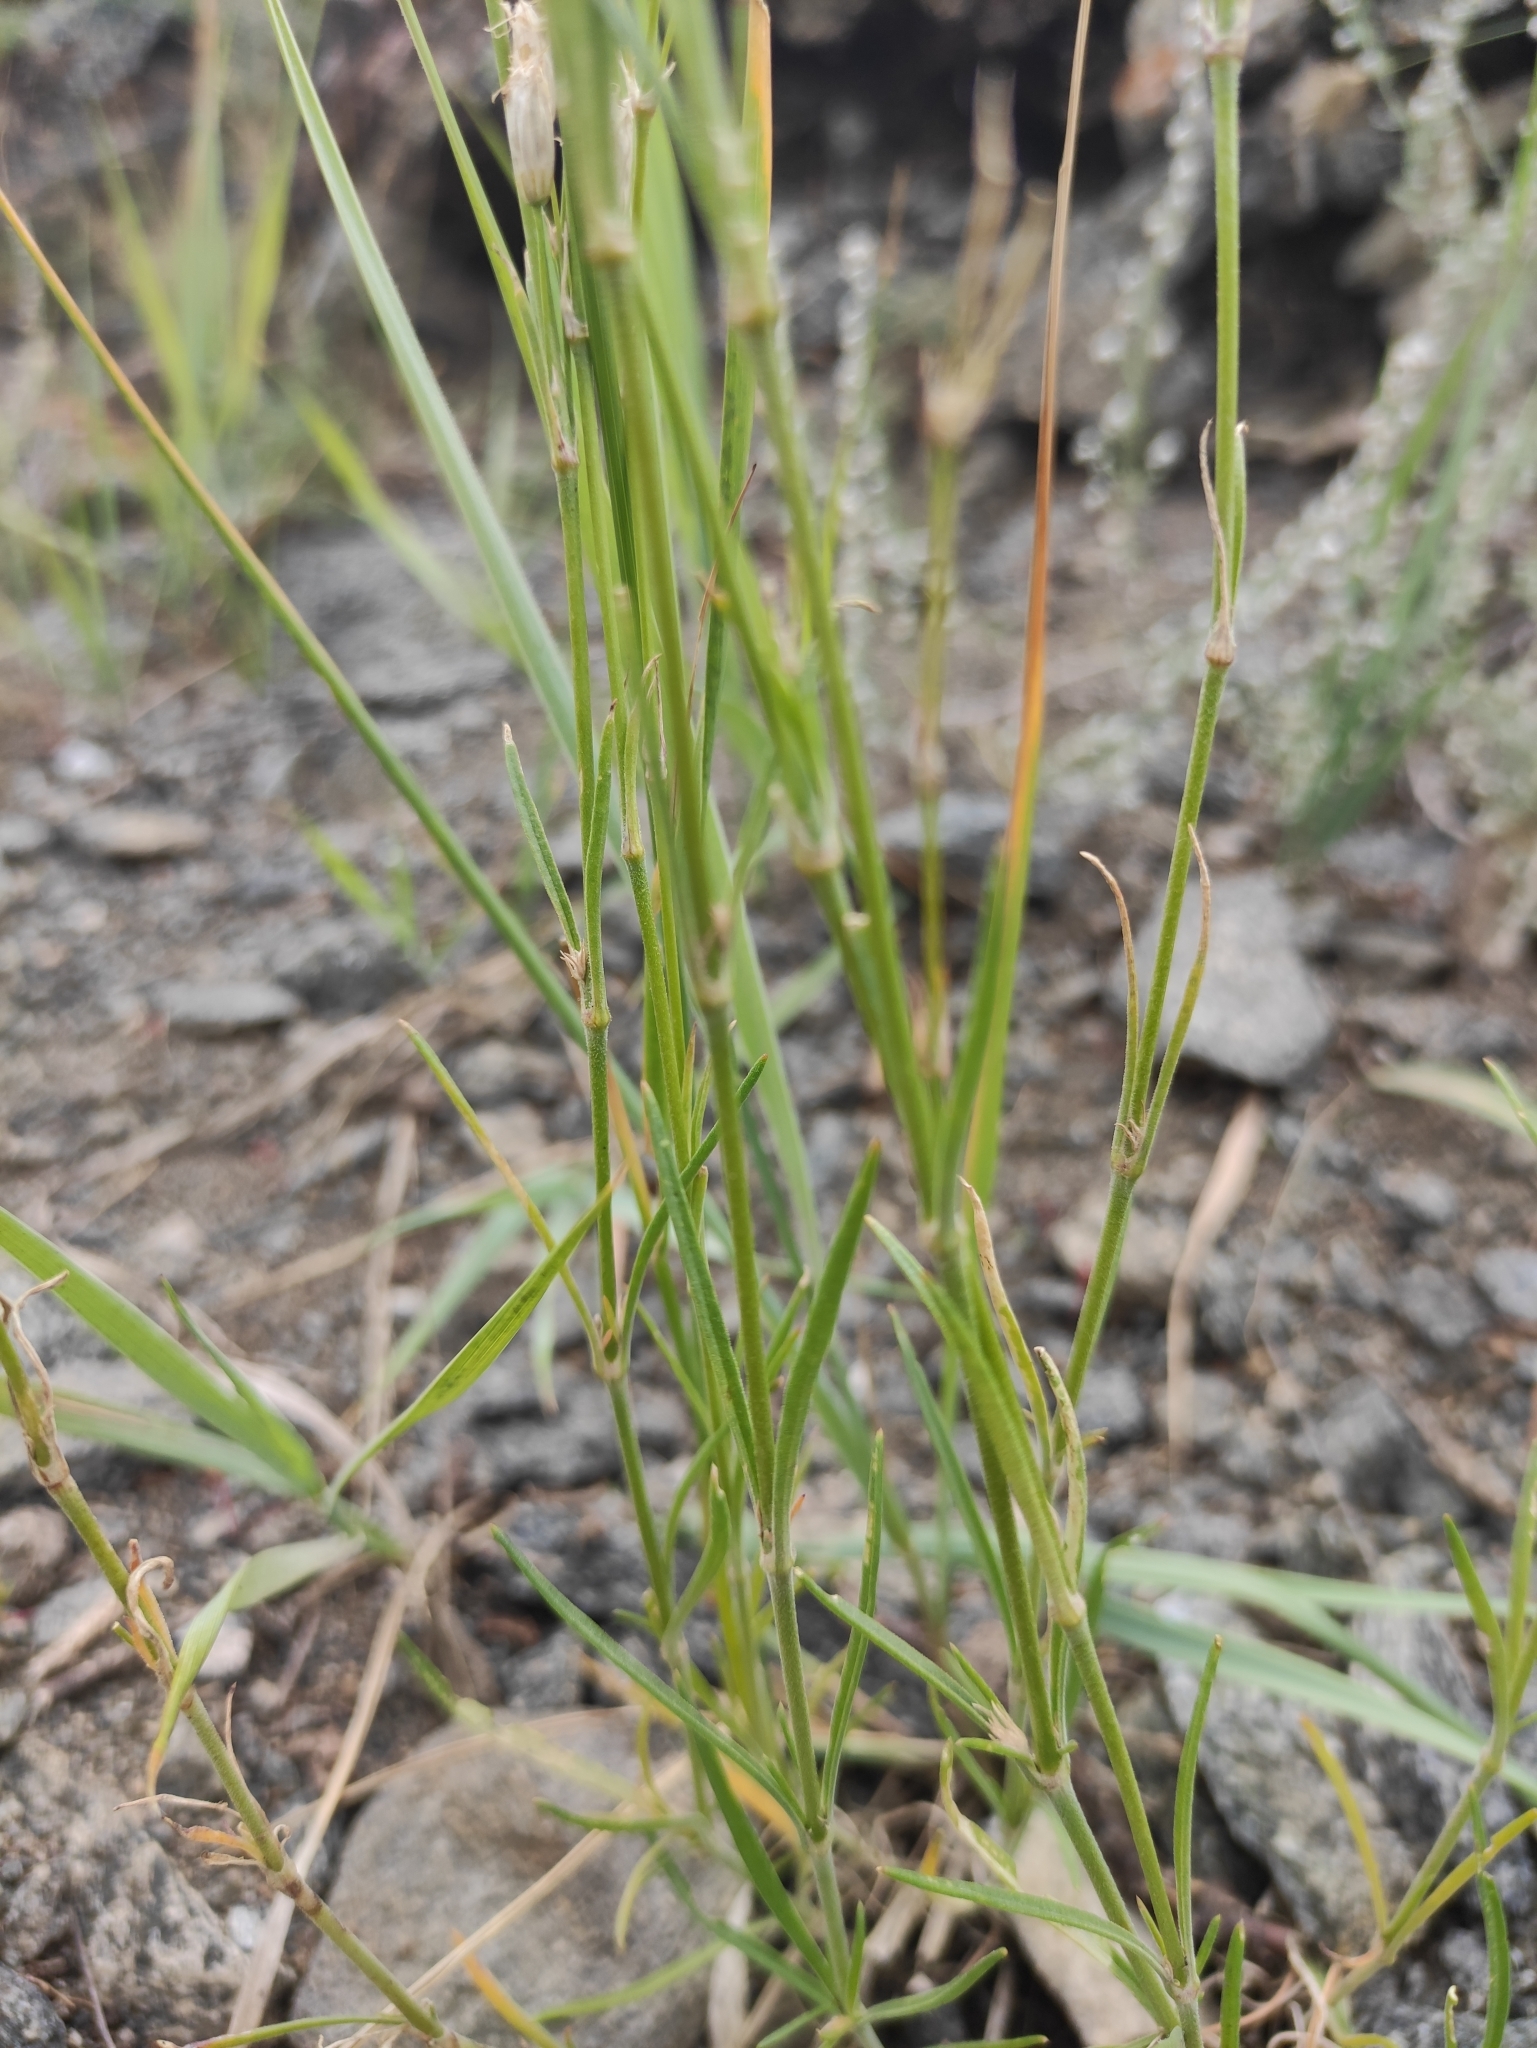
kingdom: Plantae
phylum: Tracheophyta
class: Magnoliopsida
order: Caryophyllales
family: Caryophyllaceae
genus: Silene
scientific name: Silene jeniseensis
